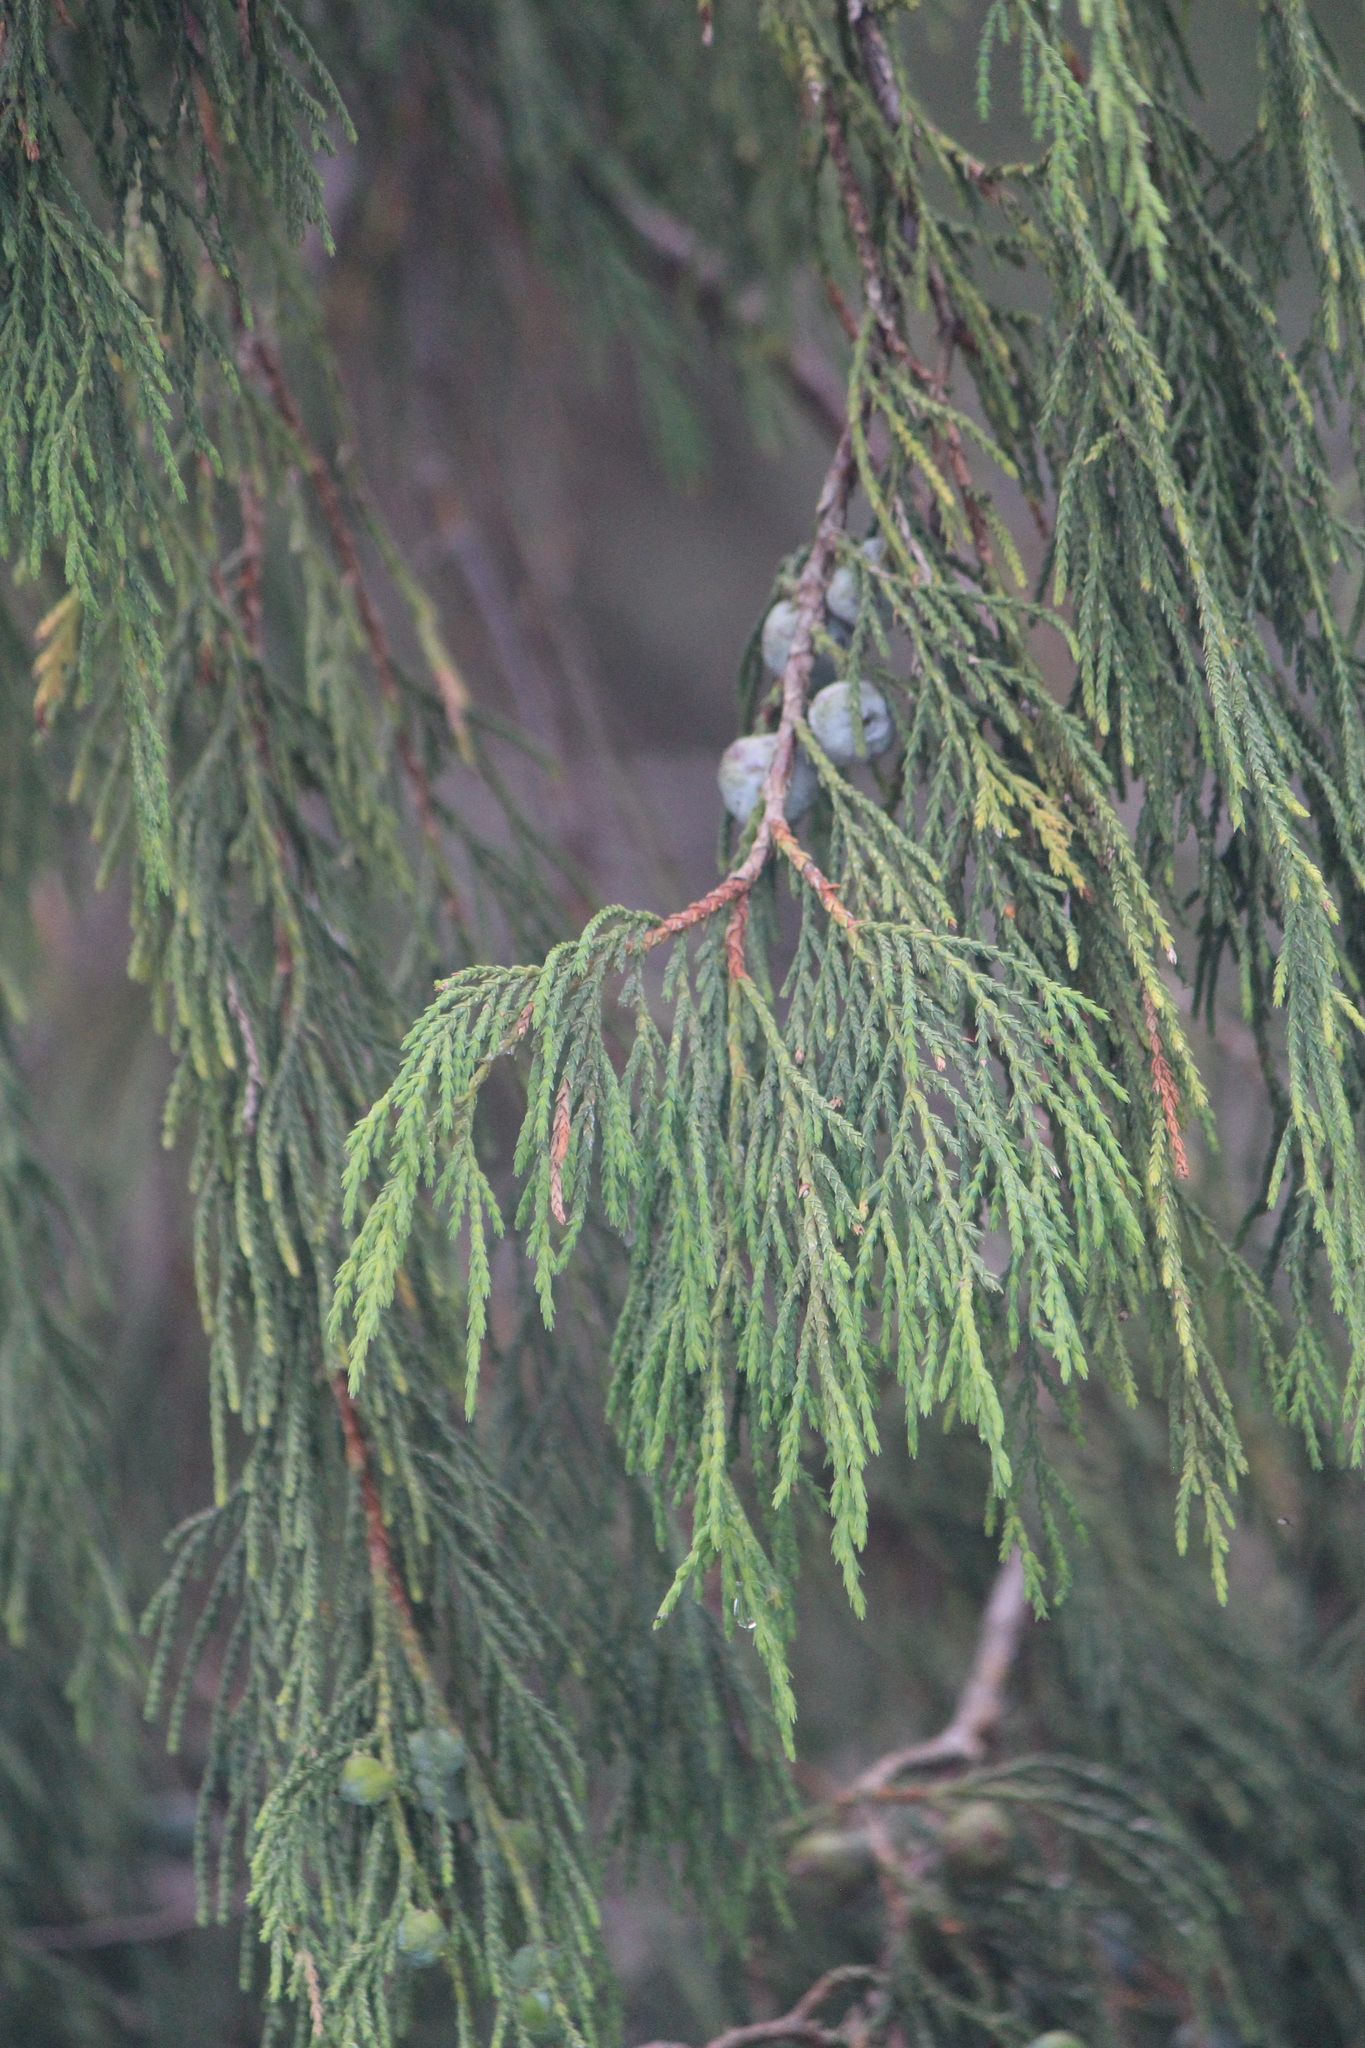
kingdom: Plantae
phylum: Tracheophyta
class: Pinopsida
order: Pinales
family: Cupressaceae
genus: Juniperus
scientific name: Juniperus flaccida
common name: Drooping juniper
